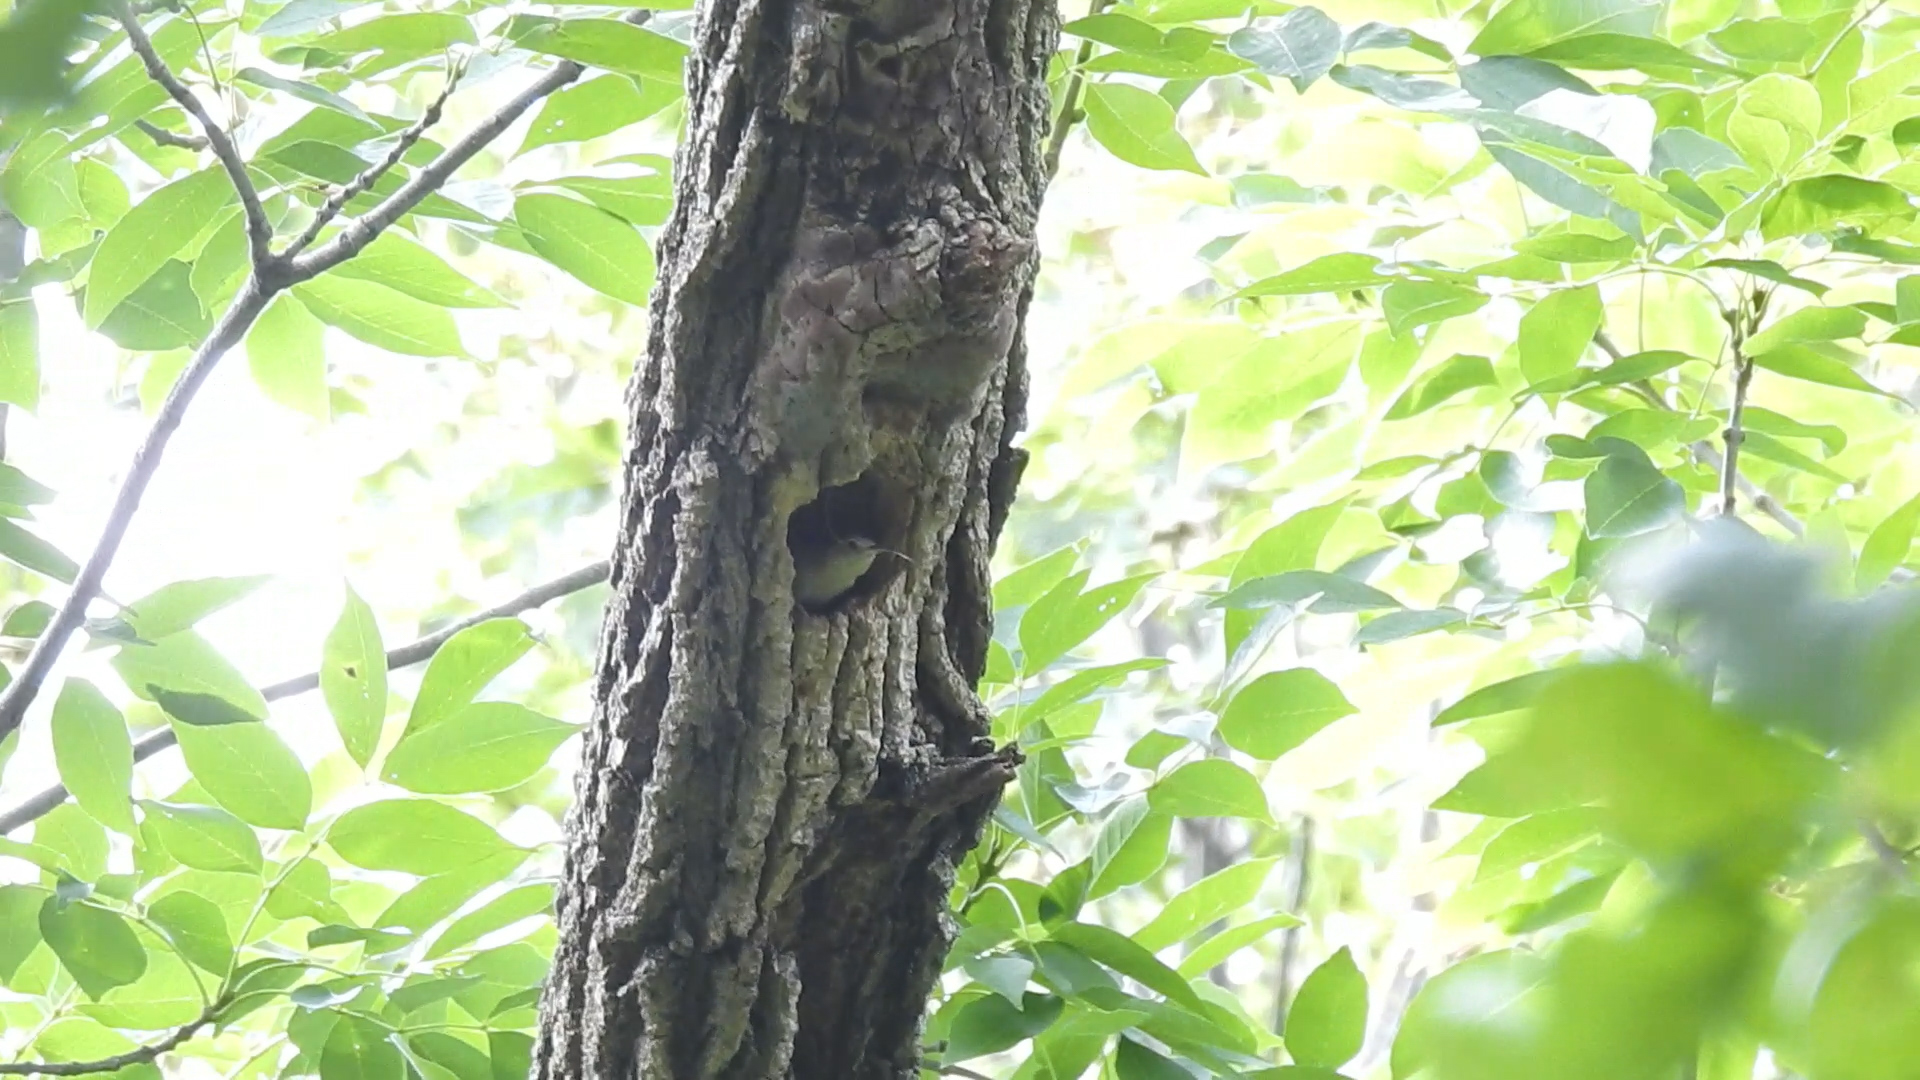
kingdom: Animalia
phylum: Chordata
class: Aves
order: Passeriformes
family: Troglodytidae
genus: Troglodytes
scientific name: Troglodytes aedon
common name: House wren
